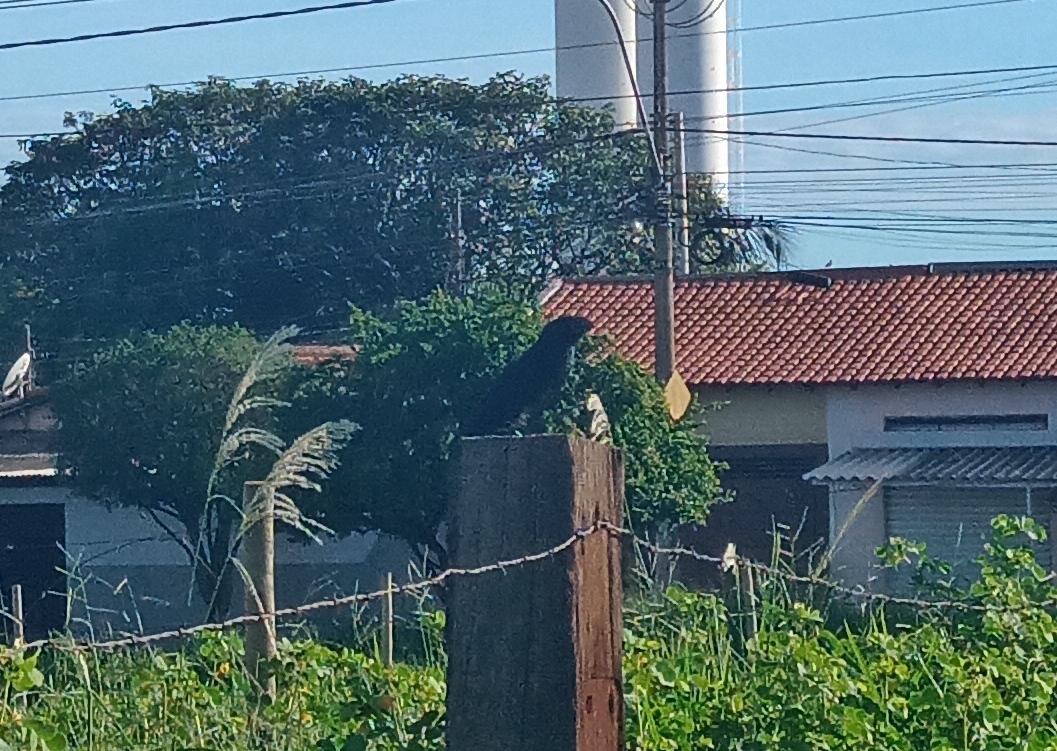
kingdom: Animalia
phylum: Chordata
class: Aves
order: Cuculiformes
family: Cuculidae
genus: Crotophaga
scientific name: Crotophaga ani
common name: Smooth-billed ani
